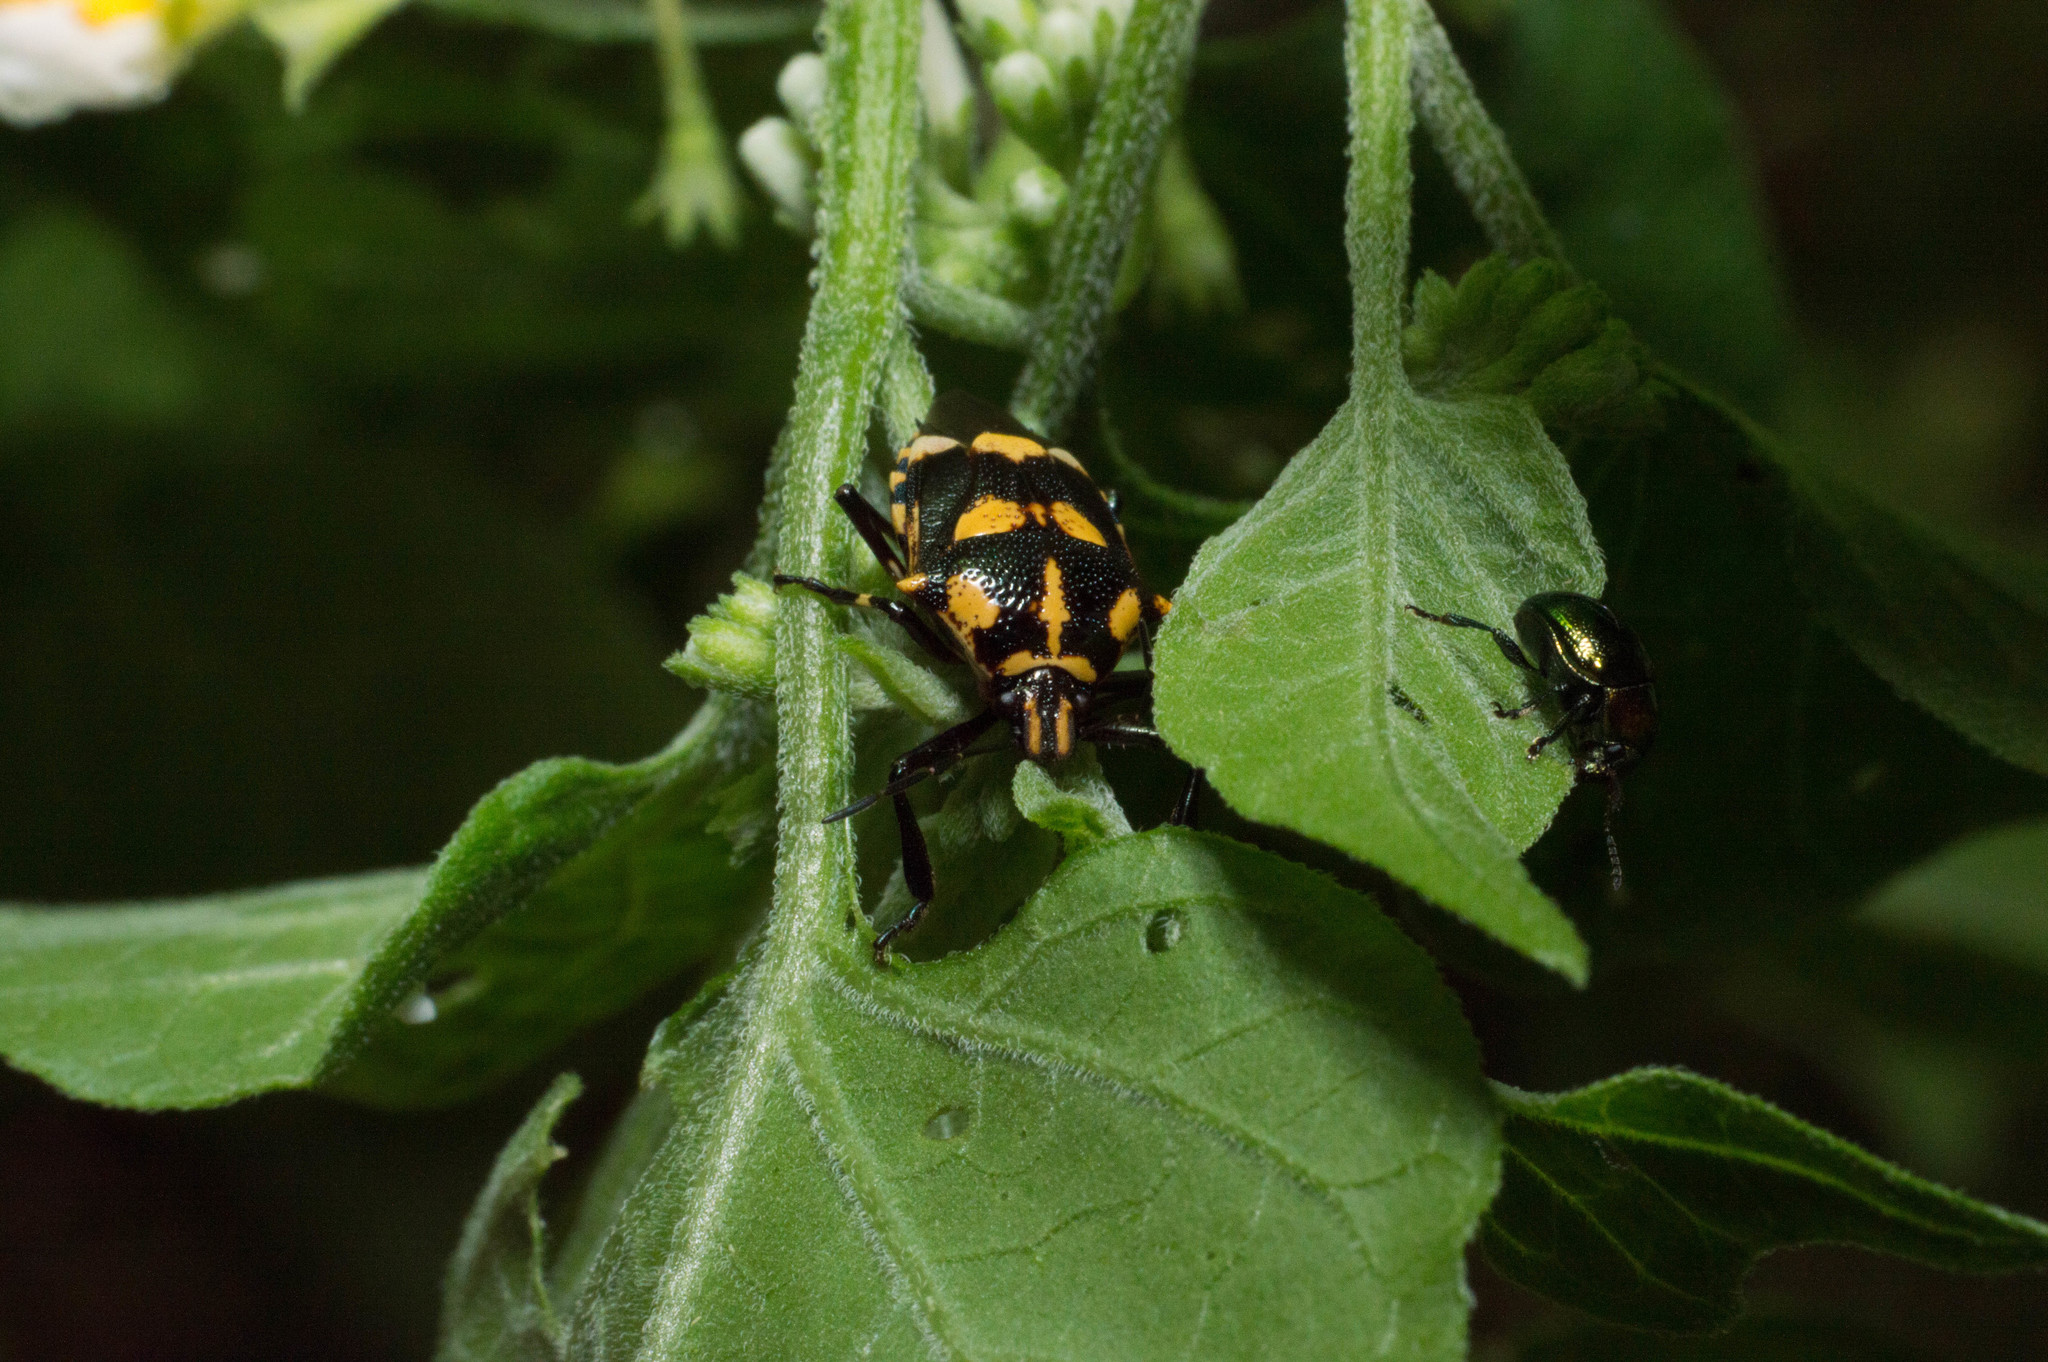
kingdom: Animalia
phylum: Arthropoda
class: Insecta
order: Hemiptera
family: Pentatomidae
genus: Oplomus
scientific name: Oplomus cruentus
